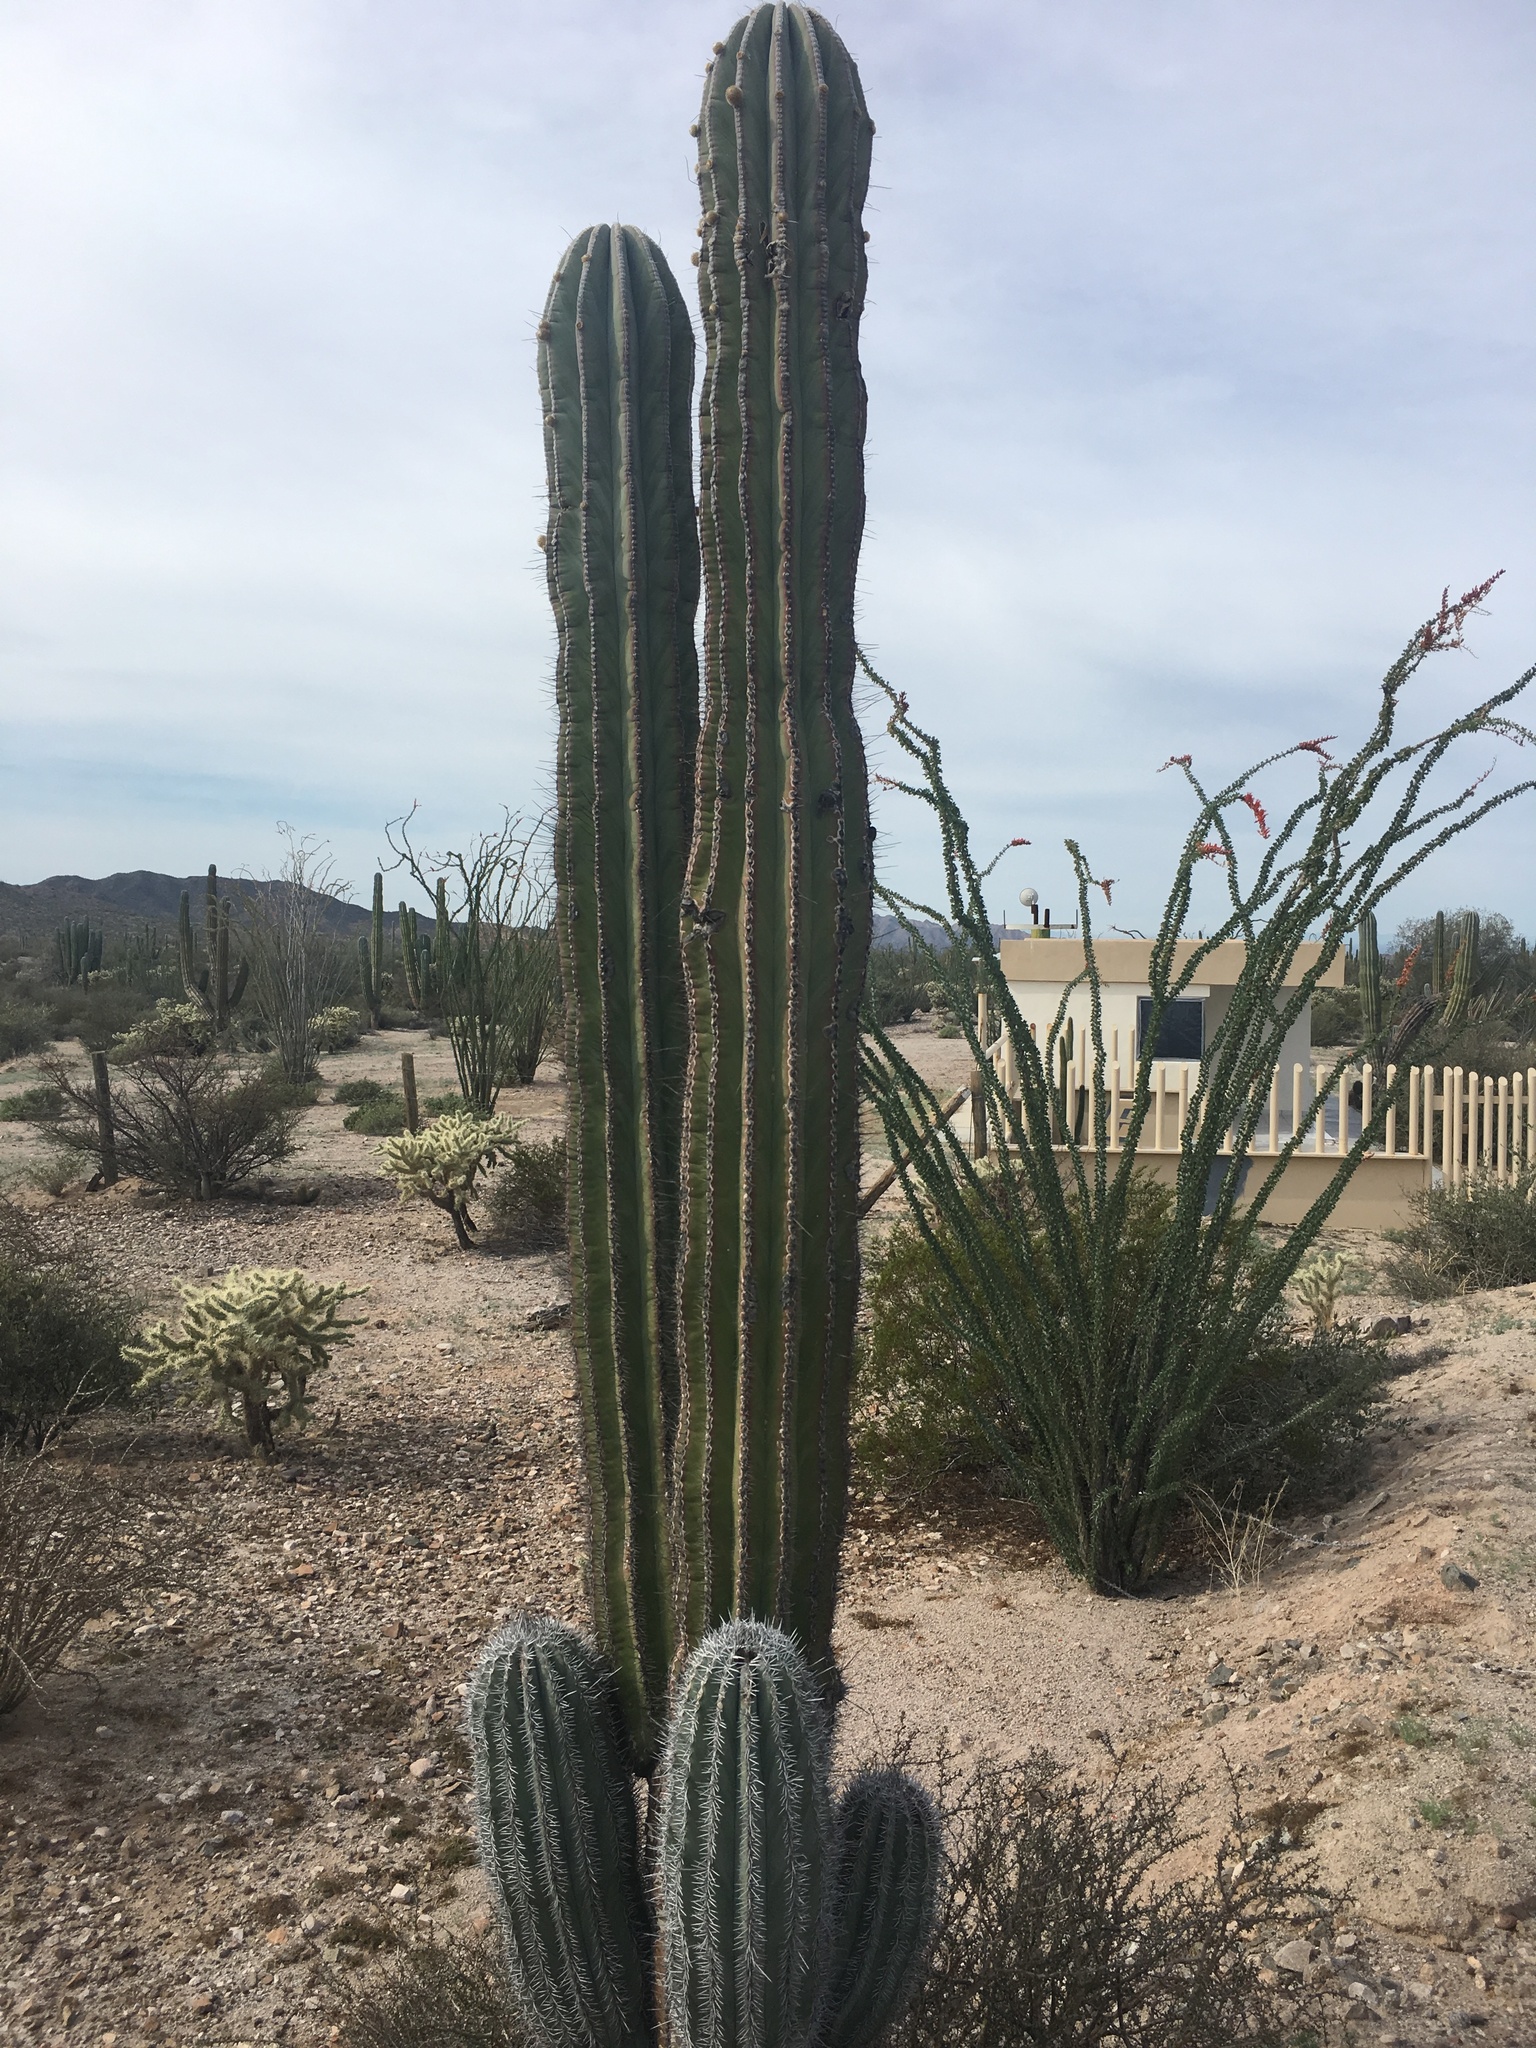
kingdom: Plantae
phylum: Tracheophyta
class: Magnoliopsida
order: Caryophyllales
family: Cactaceae
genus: Pachycereus
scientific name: Pachycereus pringlei
